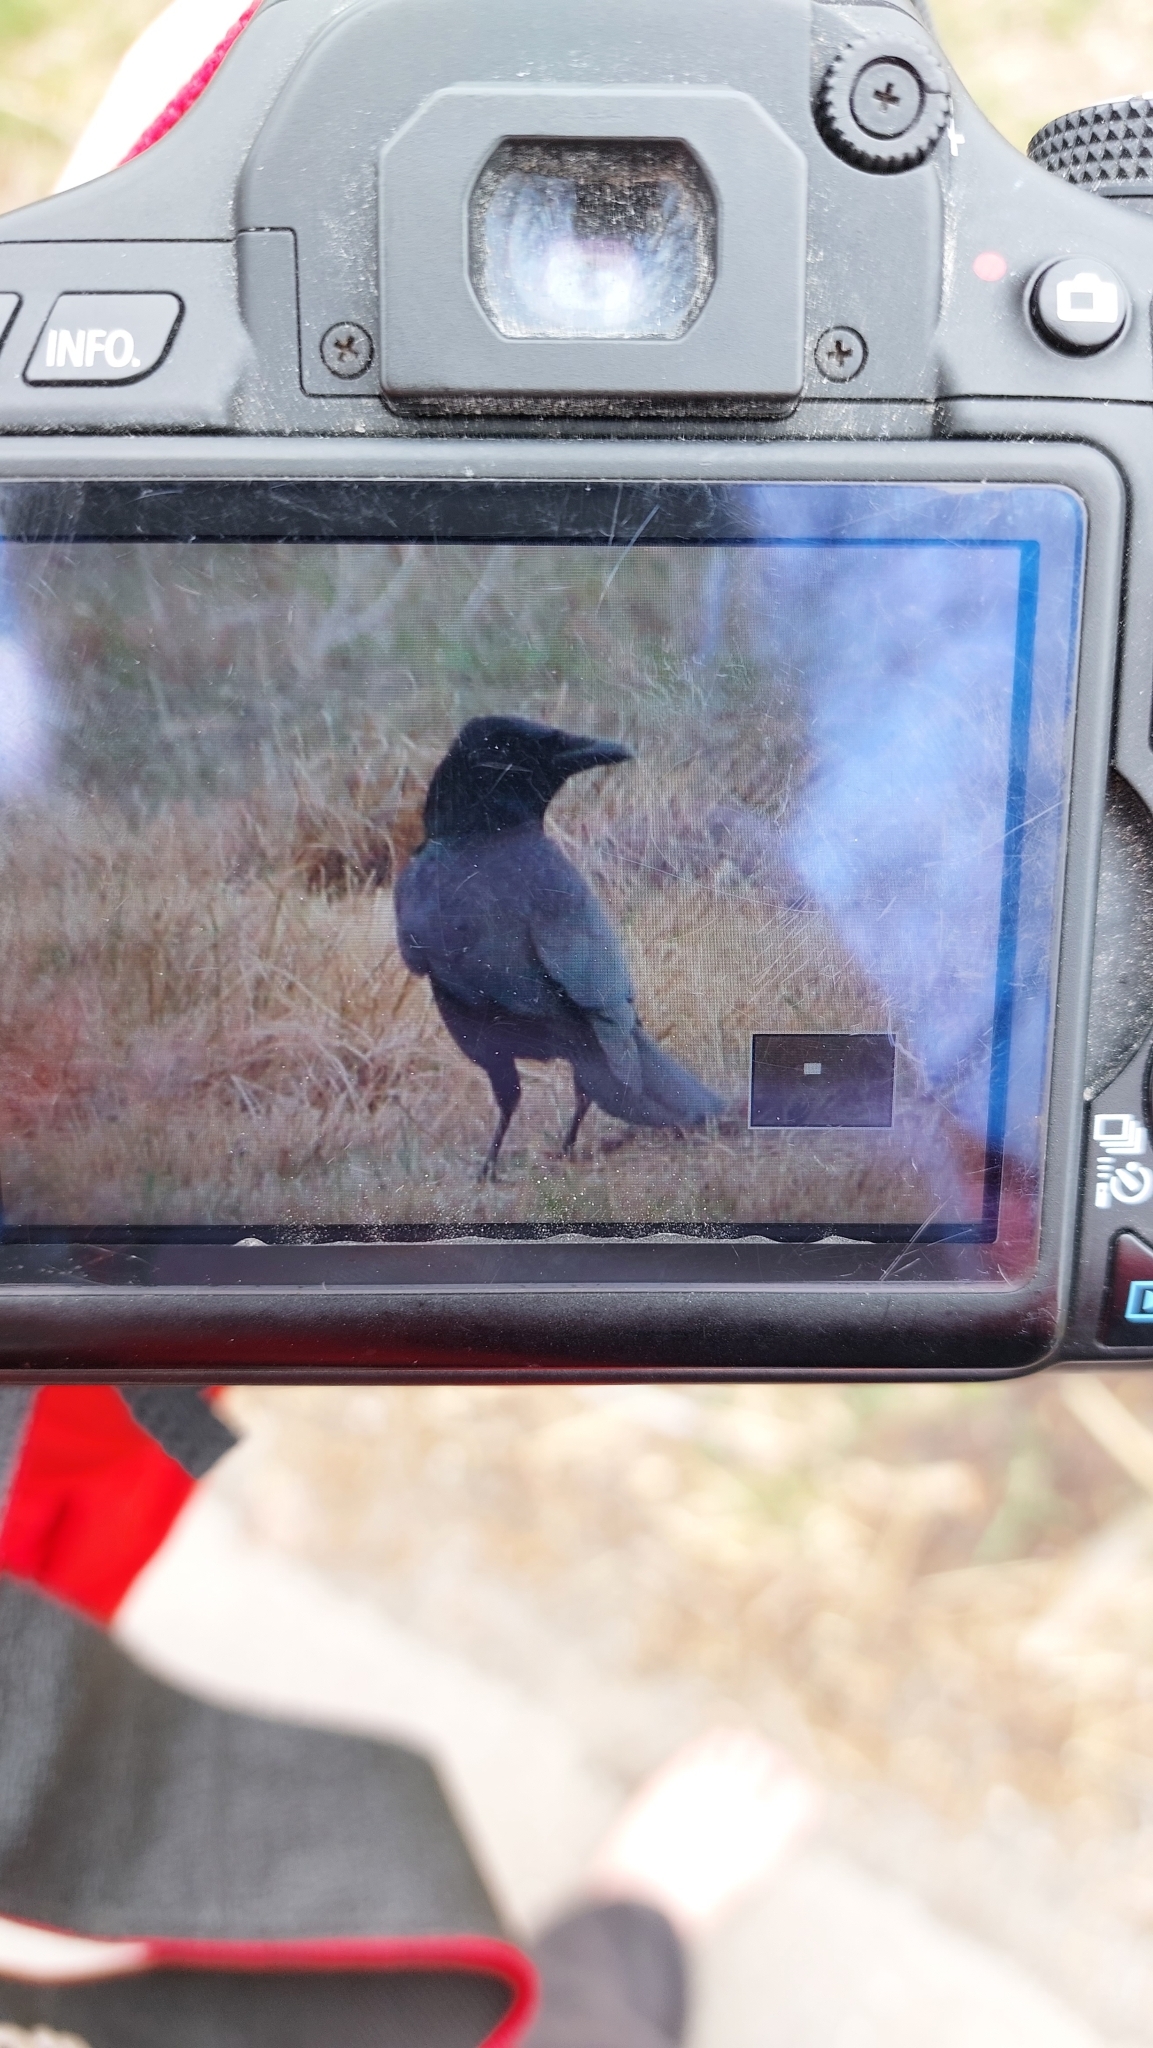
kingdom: Animalia
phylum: Chordata
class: Aves
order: Passeriformes
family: Corvidae
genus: Corvus
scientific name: Corvus corone
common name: Carrion crow
